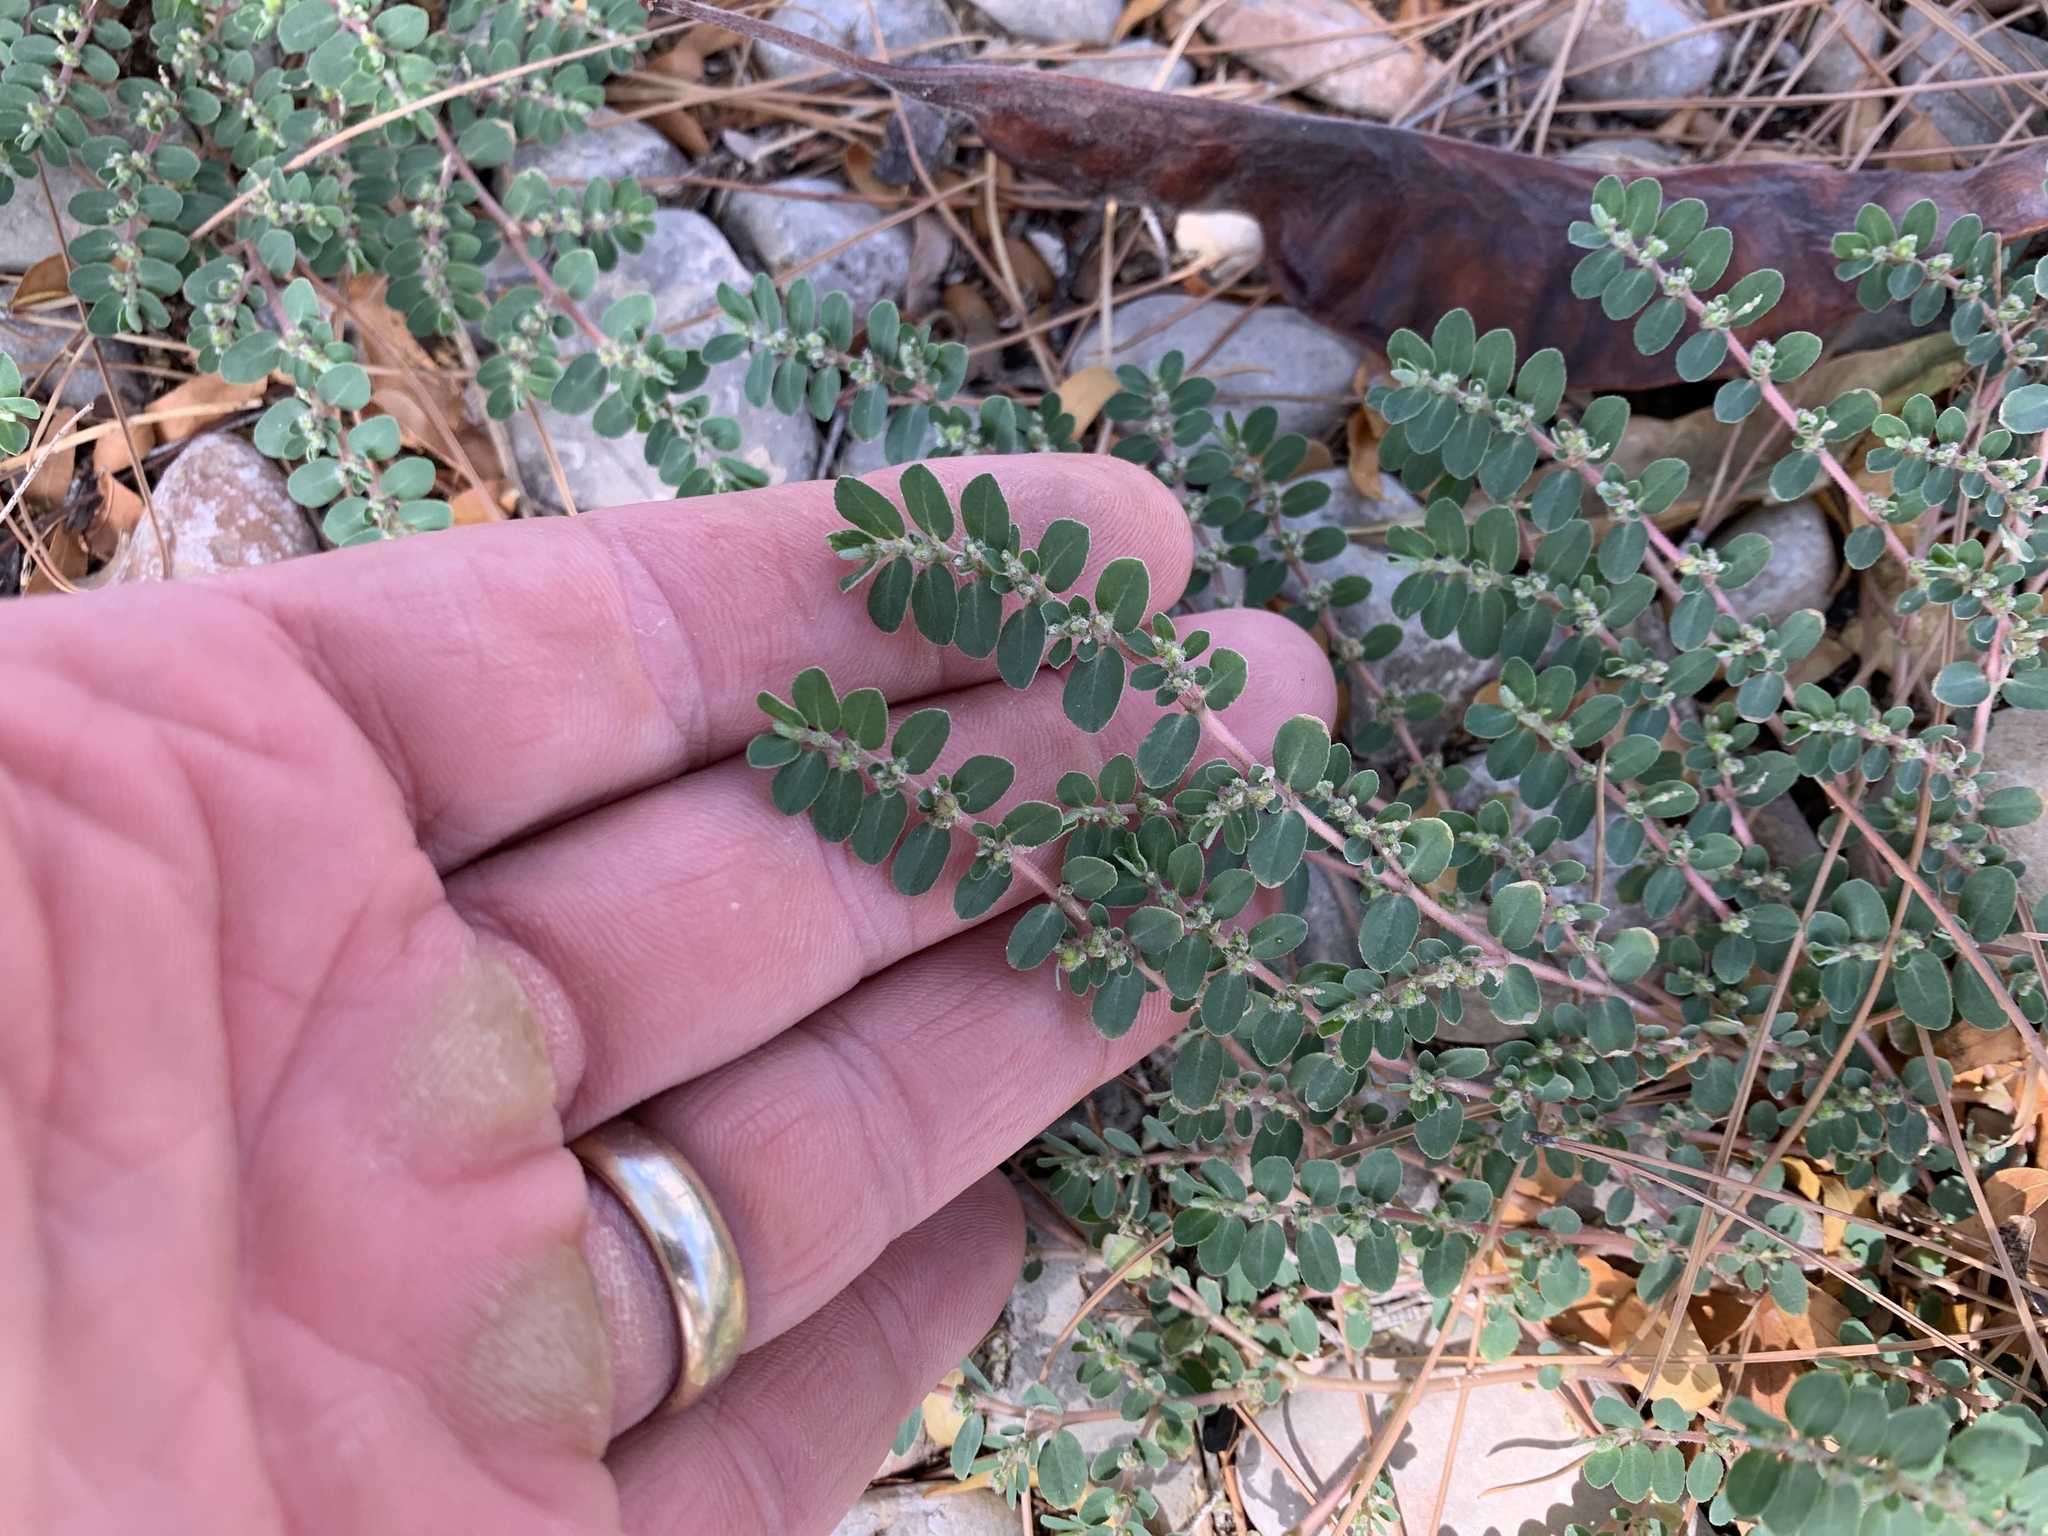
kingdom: Plantae
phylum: Tracheophyta
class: Magnoliopsida
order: Malpighiales
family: Euphorbiaceae
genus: Euphorbia
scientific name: Euphorbia prostrata
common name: Prostrate sandmat
